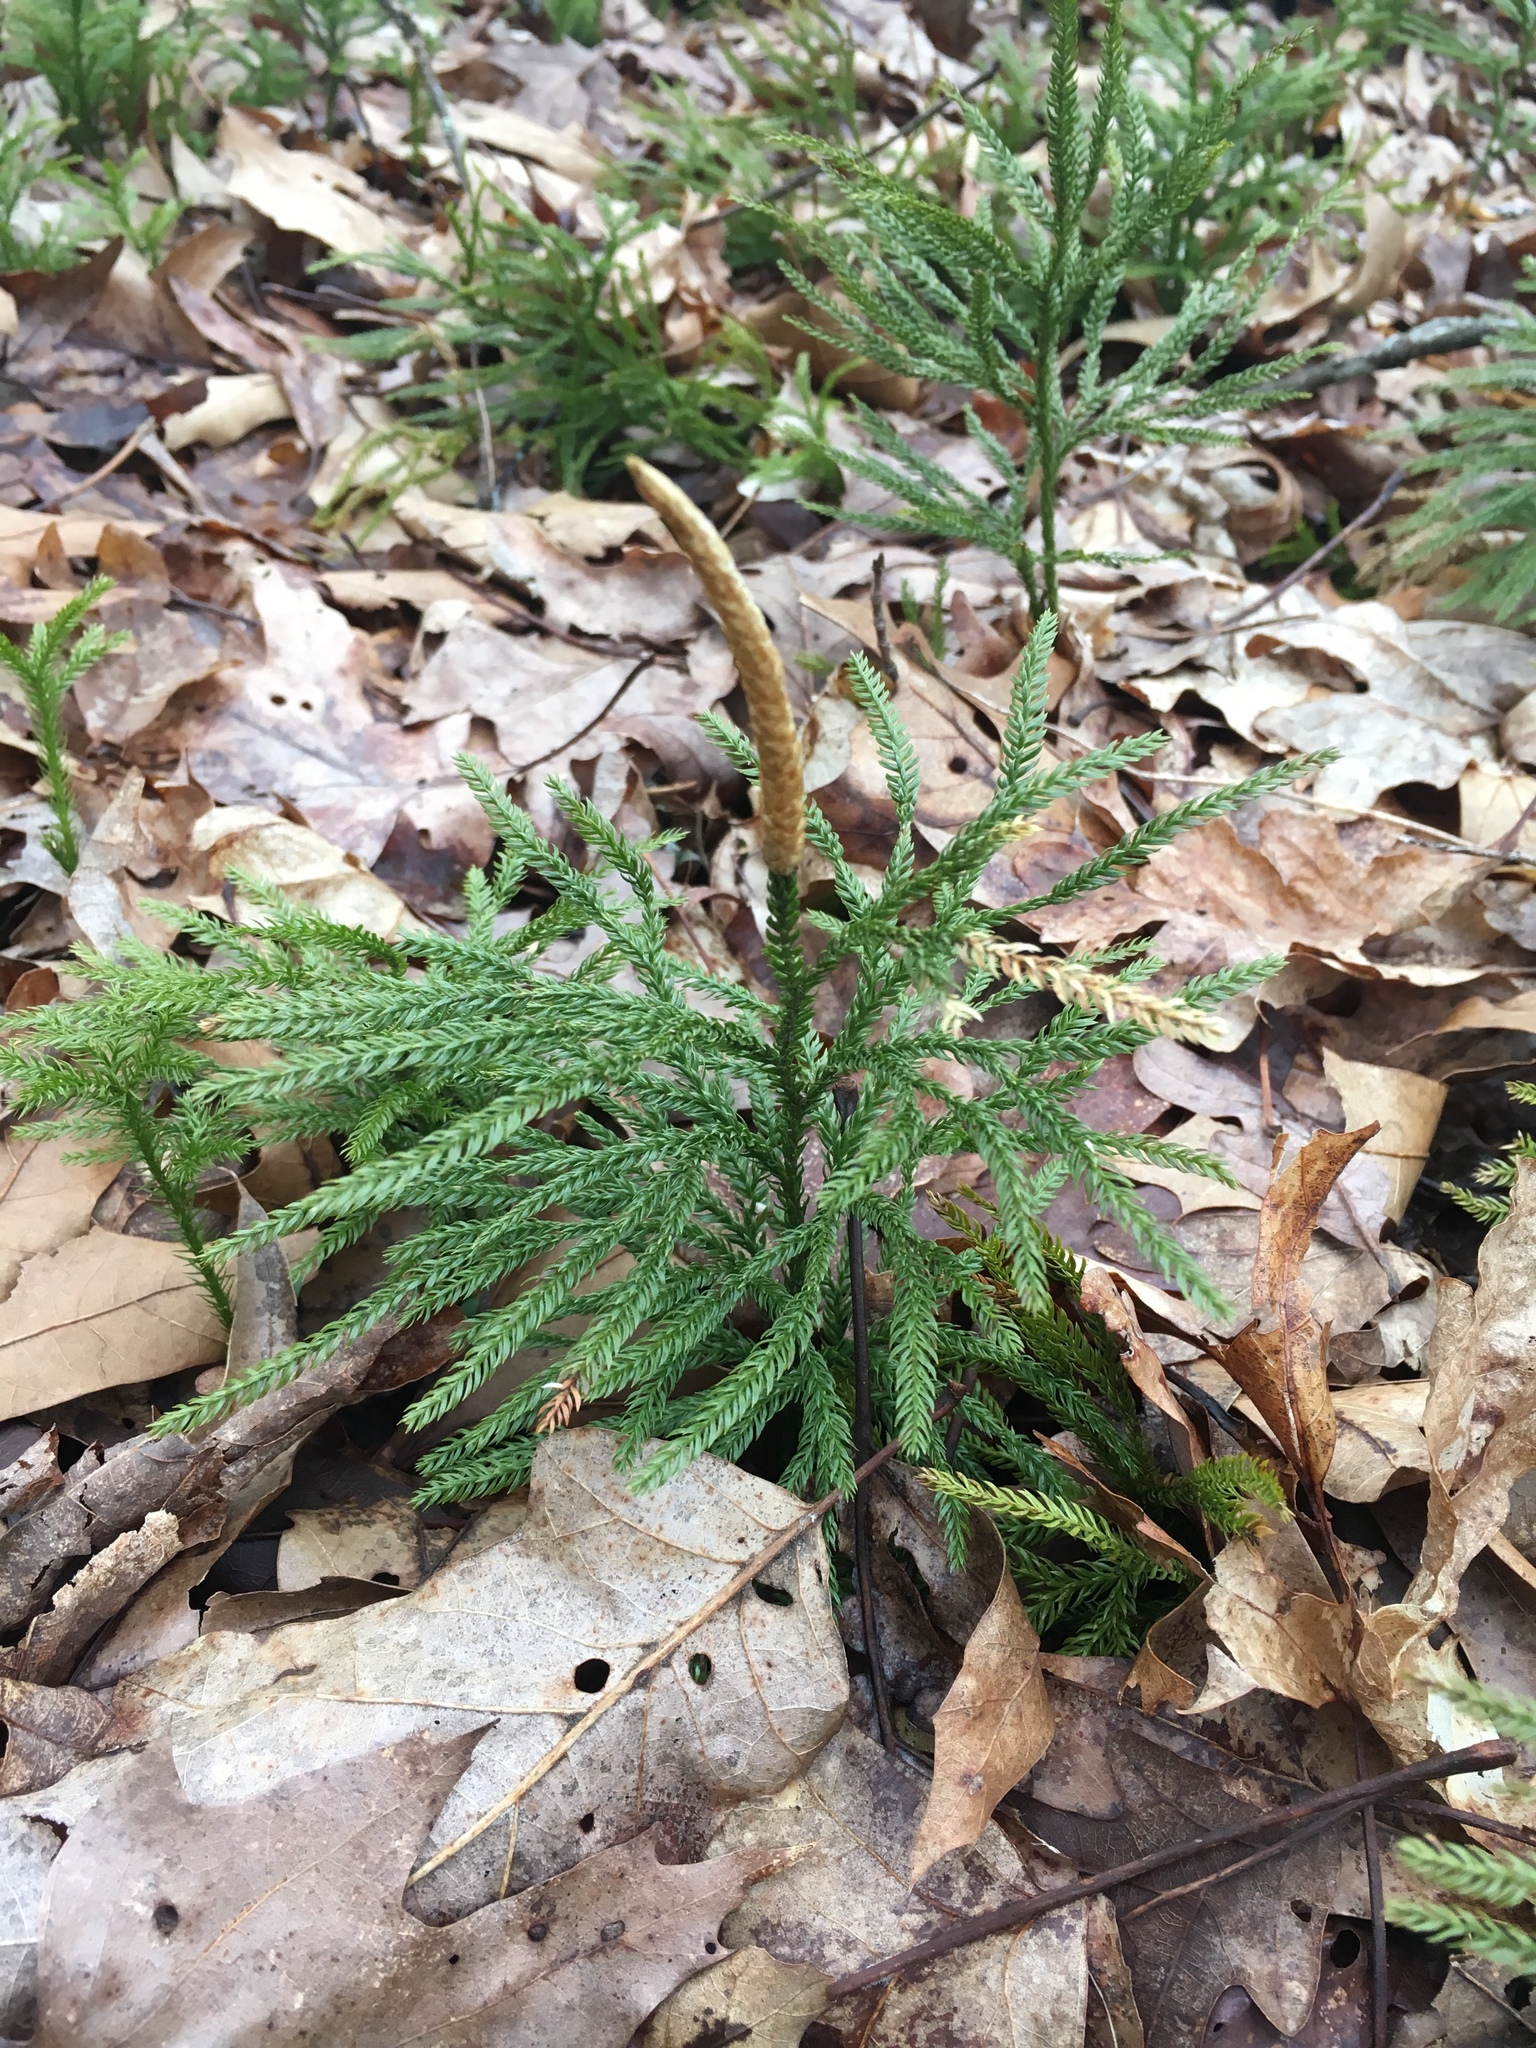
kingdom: Plantae
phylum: Tracheophyta
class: Lycopodiopsida
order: Lycopodiales
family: Lycopodiaceae
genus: Dendrolycopodium
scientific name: Dendrolycopodium obscurum
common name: Common ground-pine
